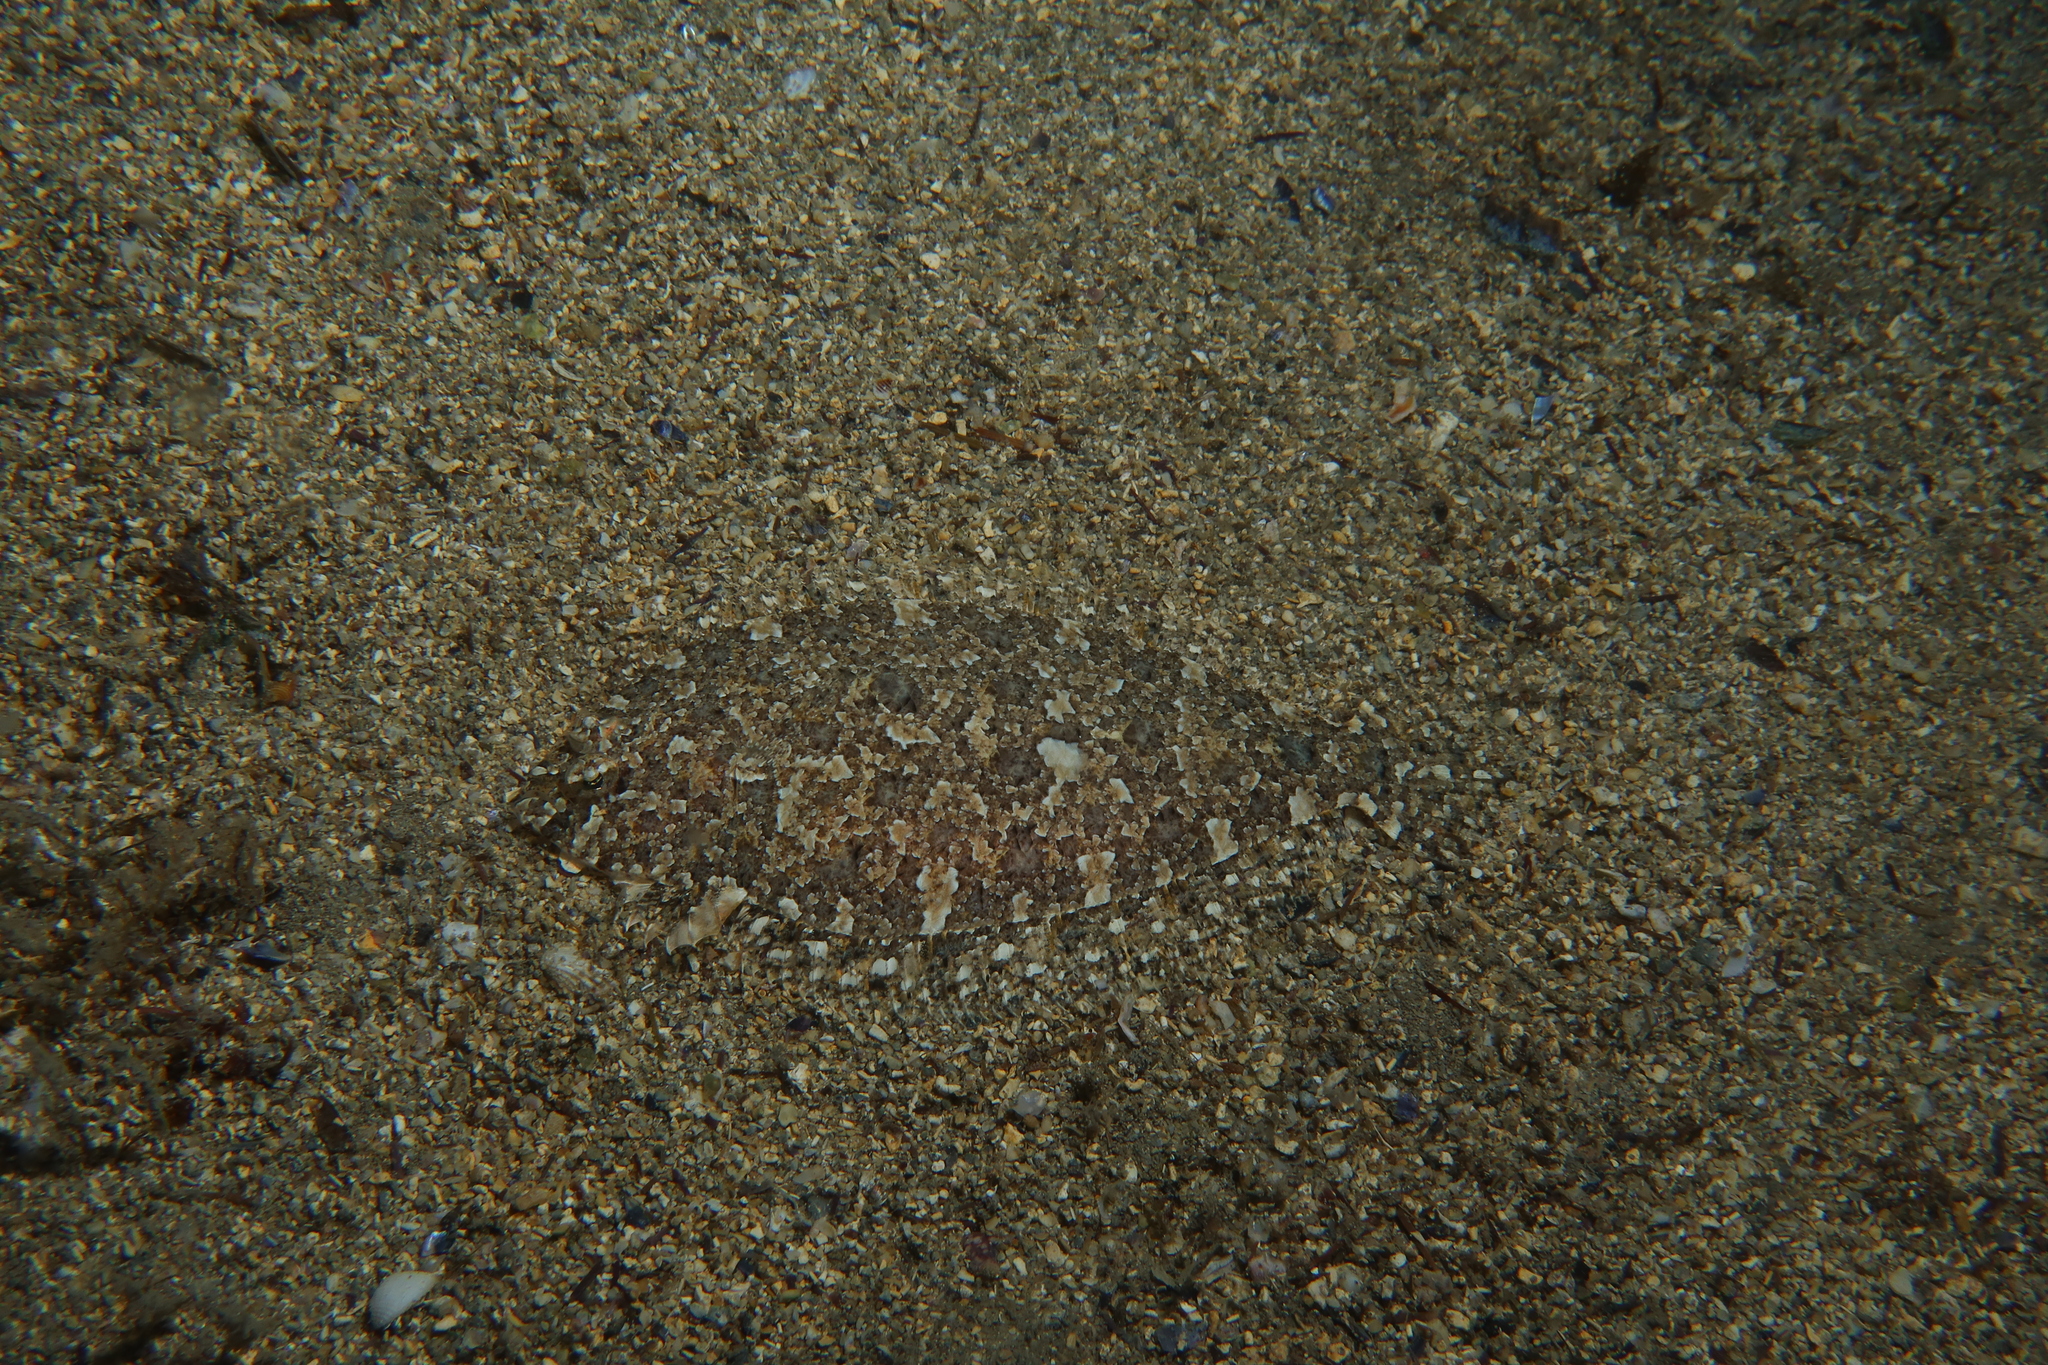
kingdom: Animalia
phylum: Chordata
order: Pleuronectiformes
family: Bothidae
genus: Arnoglossus
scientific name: Arnoglossus thori
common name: Thor's scaldfish
